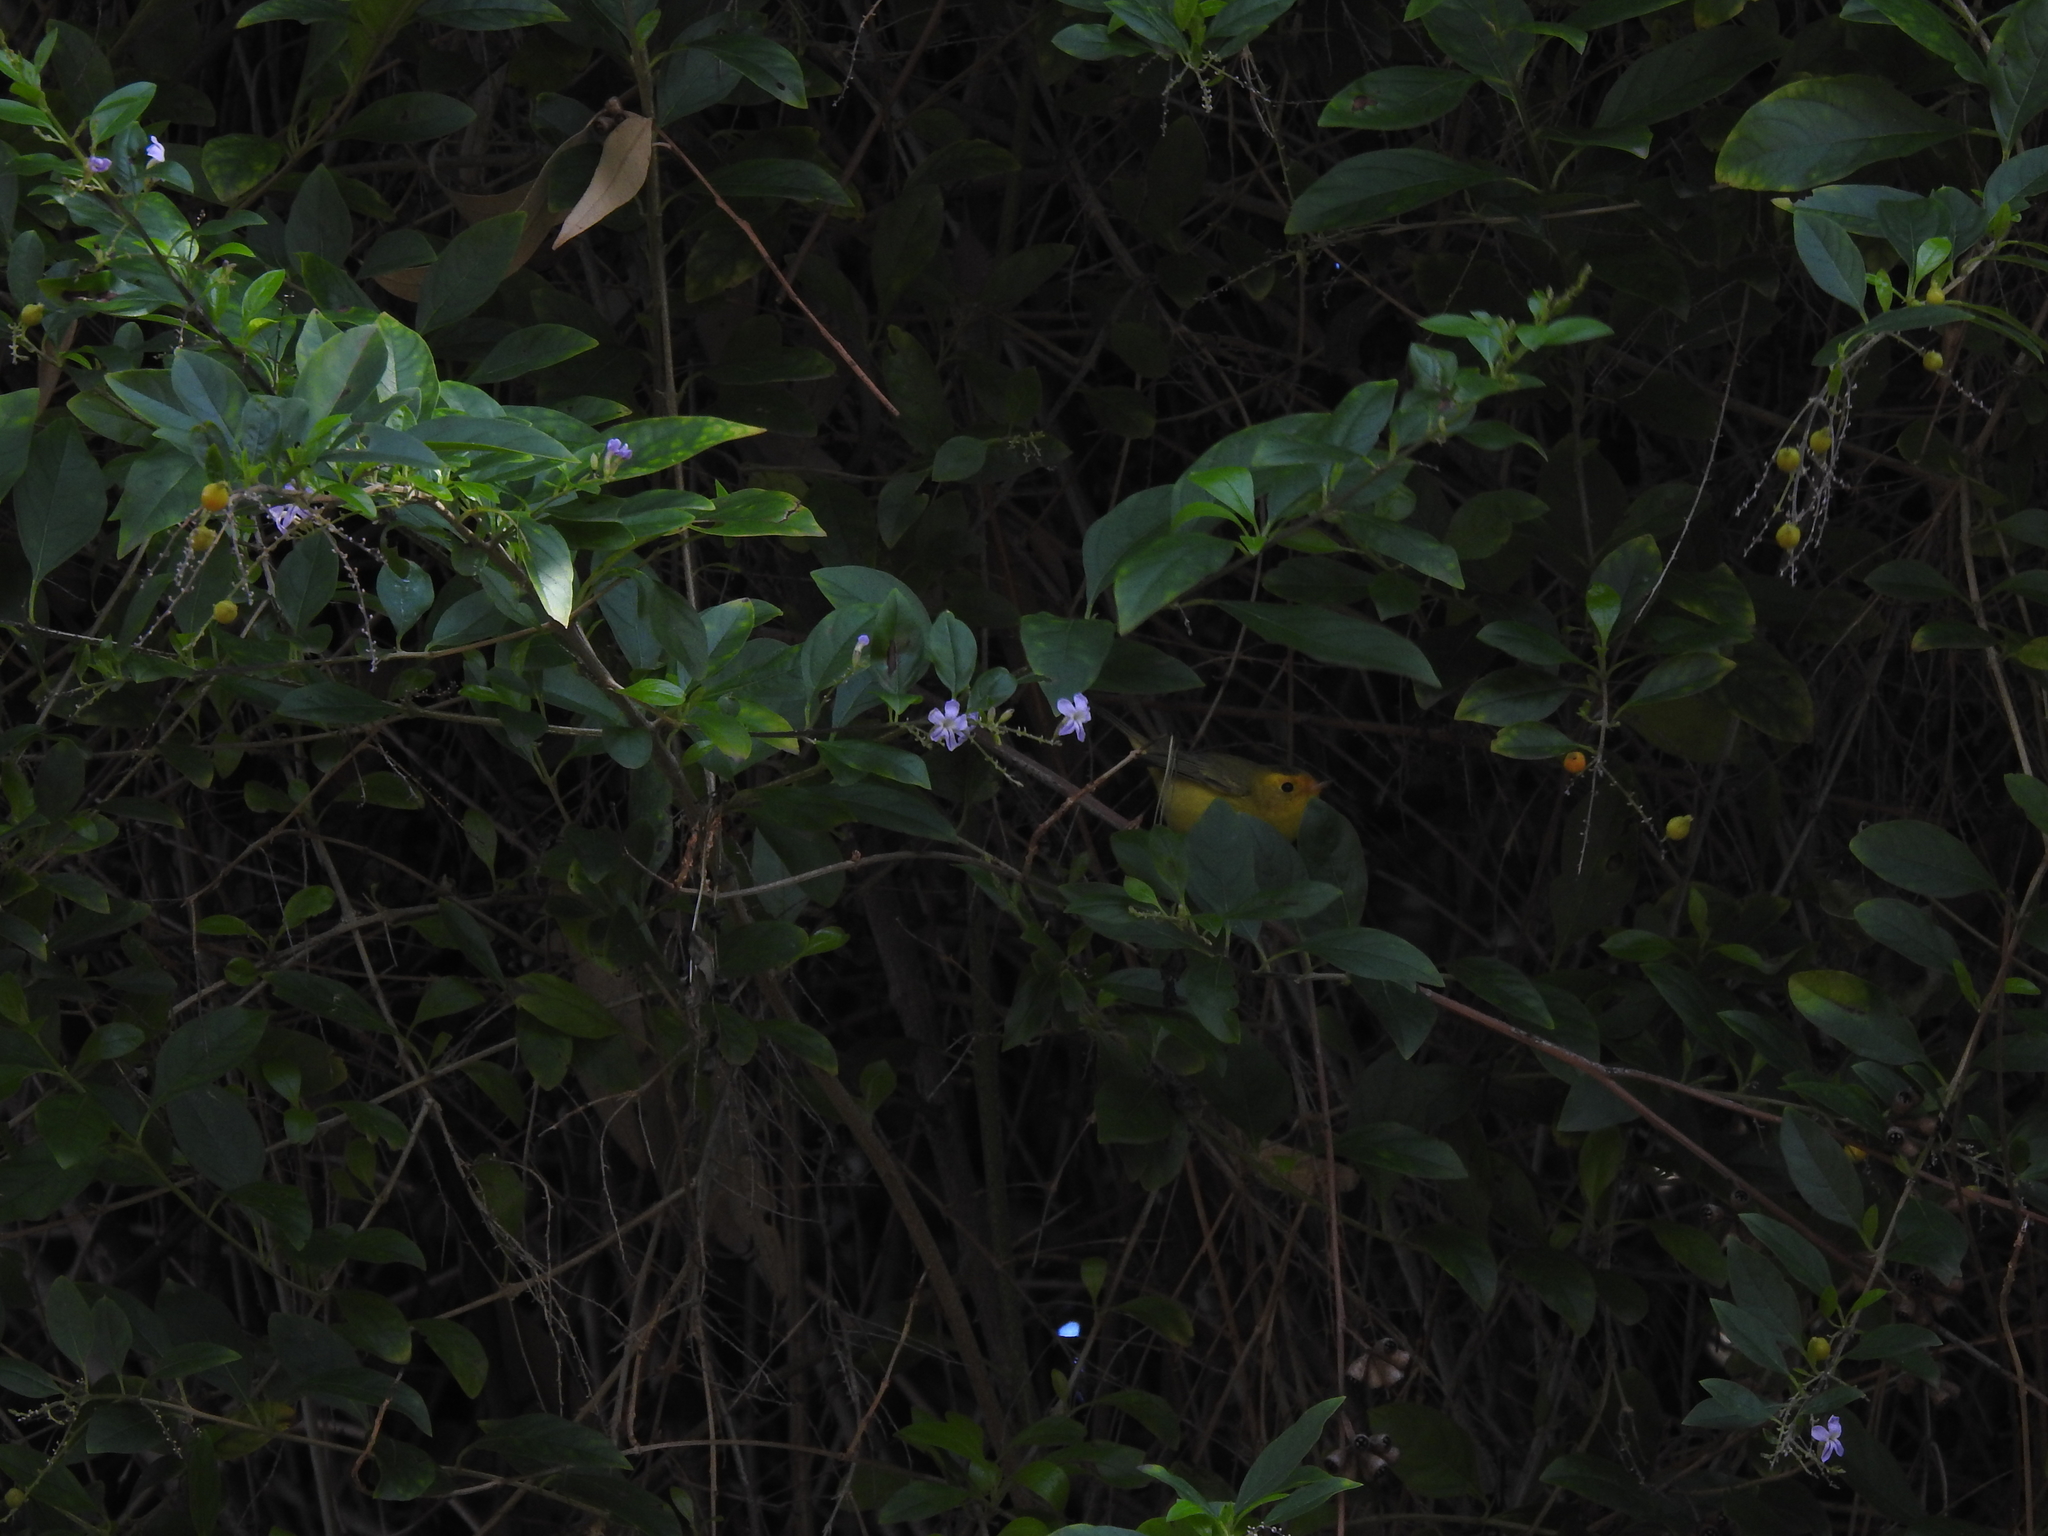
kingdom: Animalia
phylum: Chordata
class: Aves
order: Passeriformes
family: Parulidae
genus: Cardellina
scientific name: Cardellina pusilla
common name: Wilson's warbler
